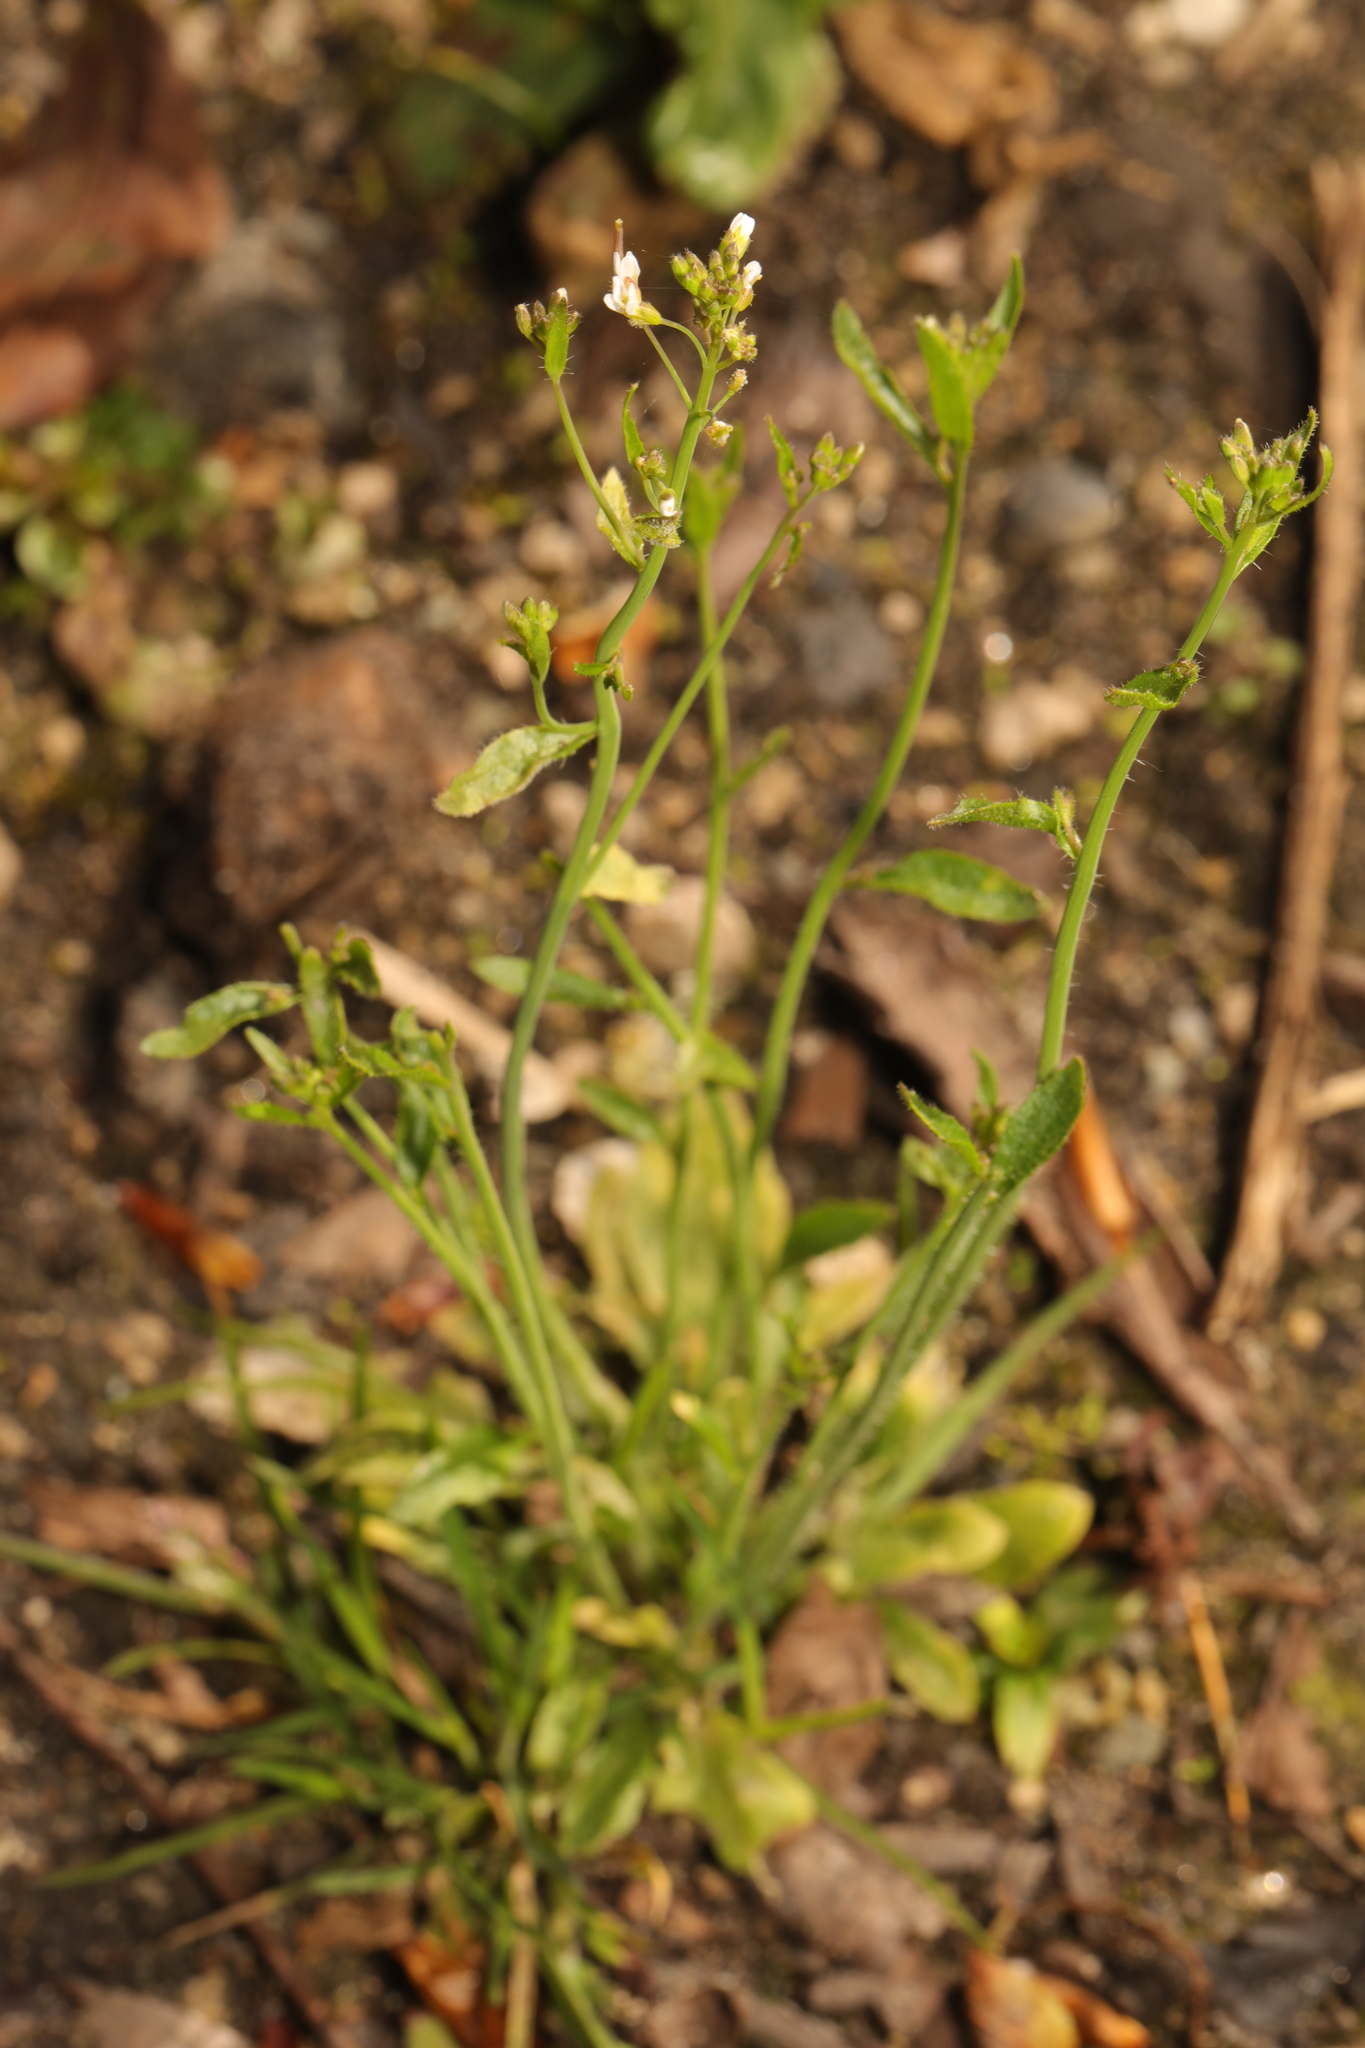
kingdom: Plantae
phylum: Tracheophyta
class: Magnoliopsida
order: Brassicales
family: Brassicaceae
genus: Arabidopsis
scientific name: Arabidopsis thaliana
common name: Thale cress
